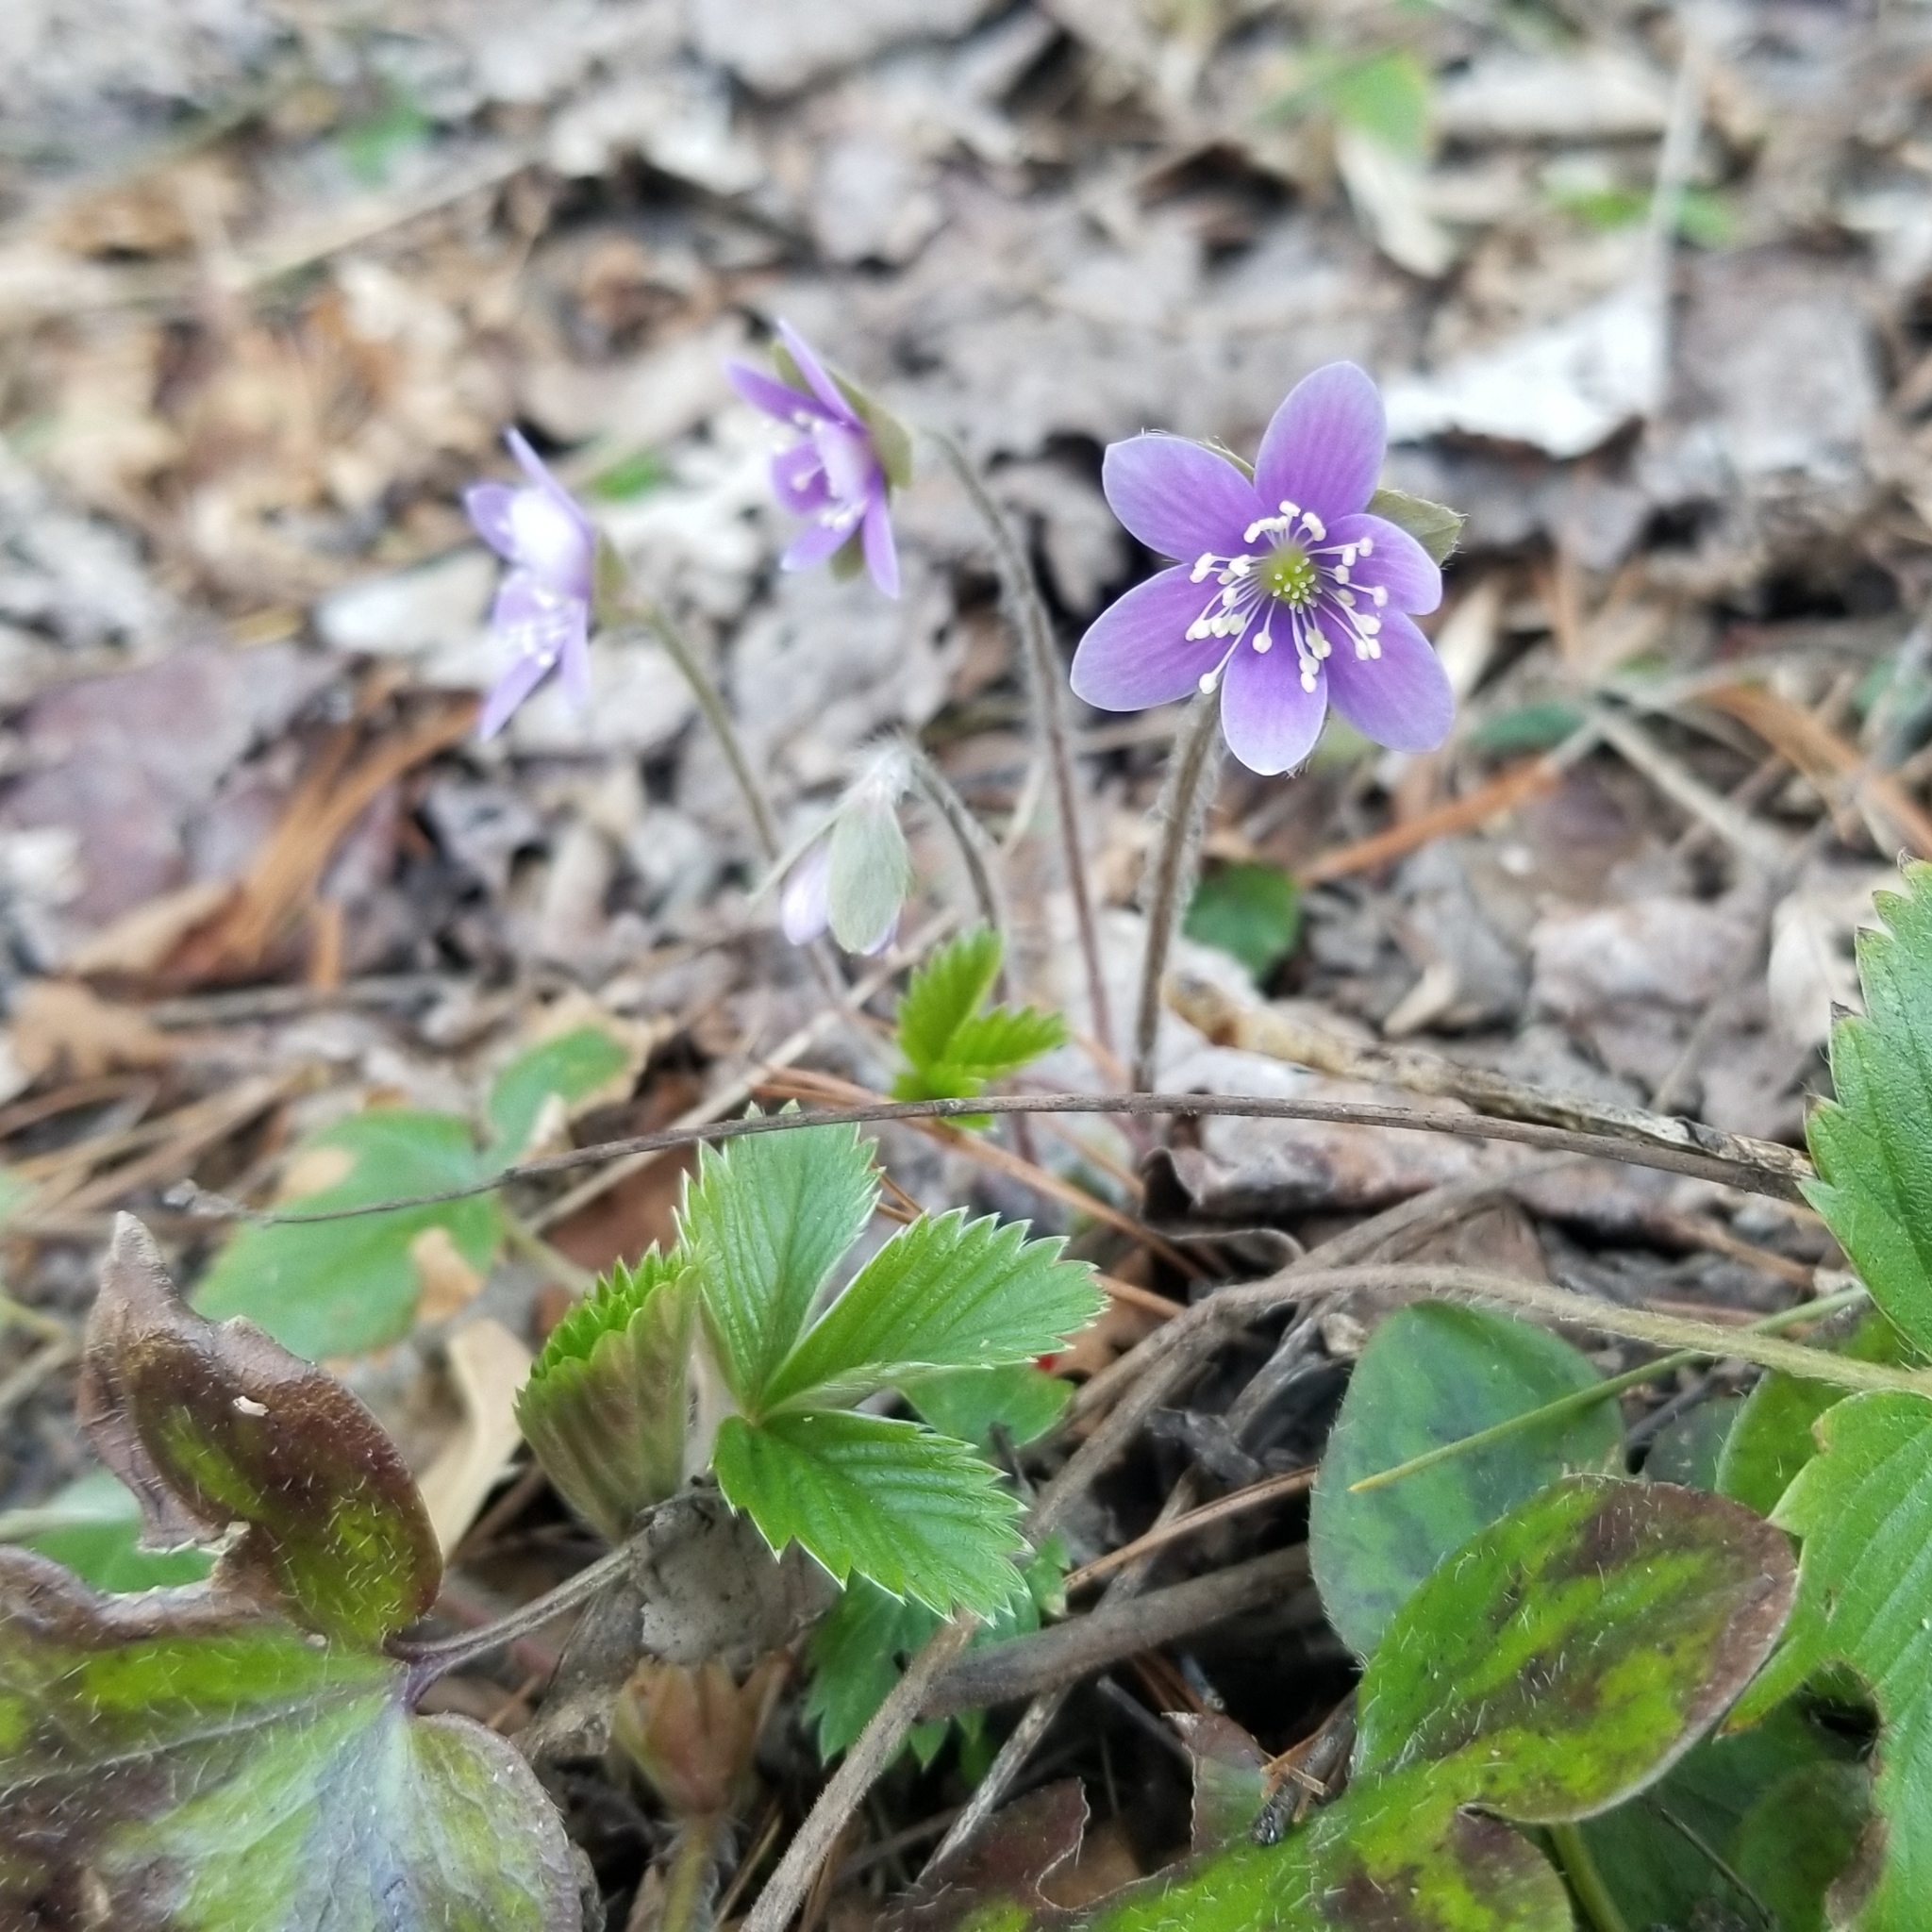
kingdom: Plantae
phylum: Tracheophyta
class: Magnoliopsida
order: Ranunculales
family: Ranunculaceae
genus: Hepatica
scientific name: Hepatica americana
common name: American hepatica
